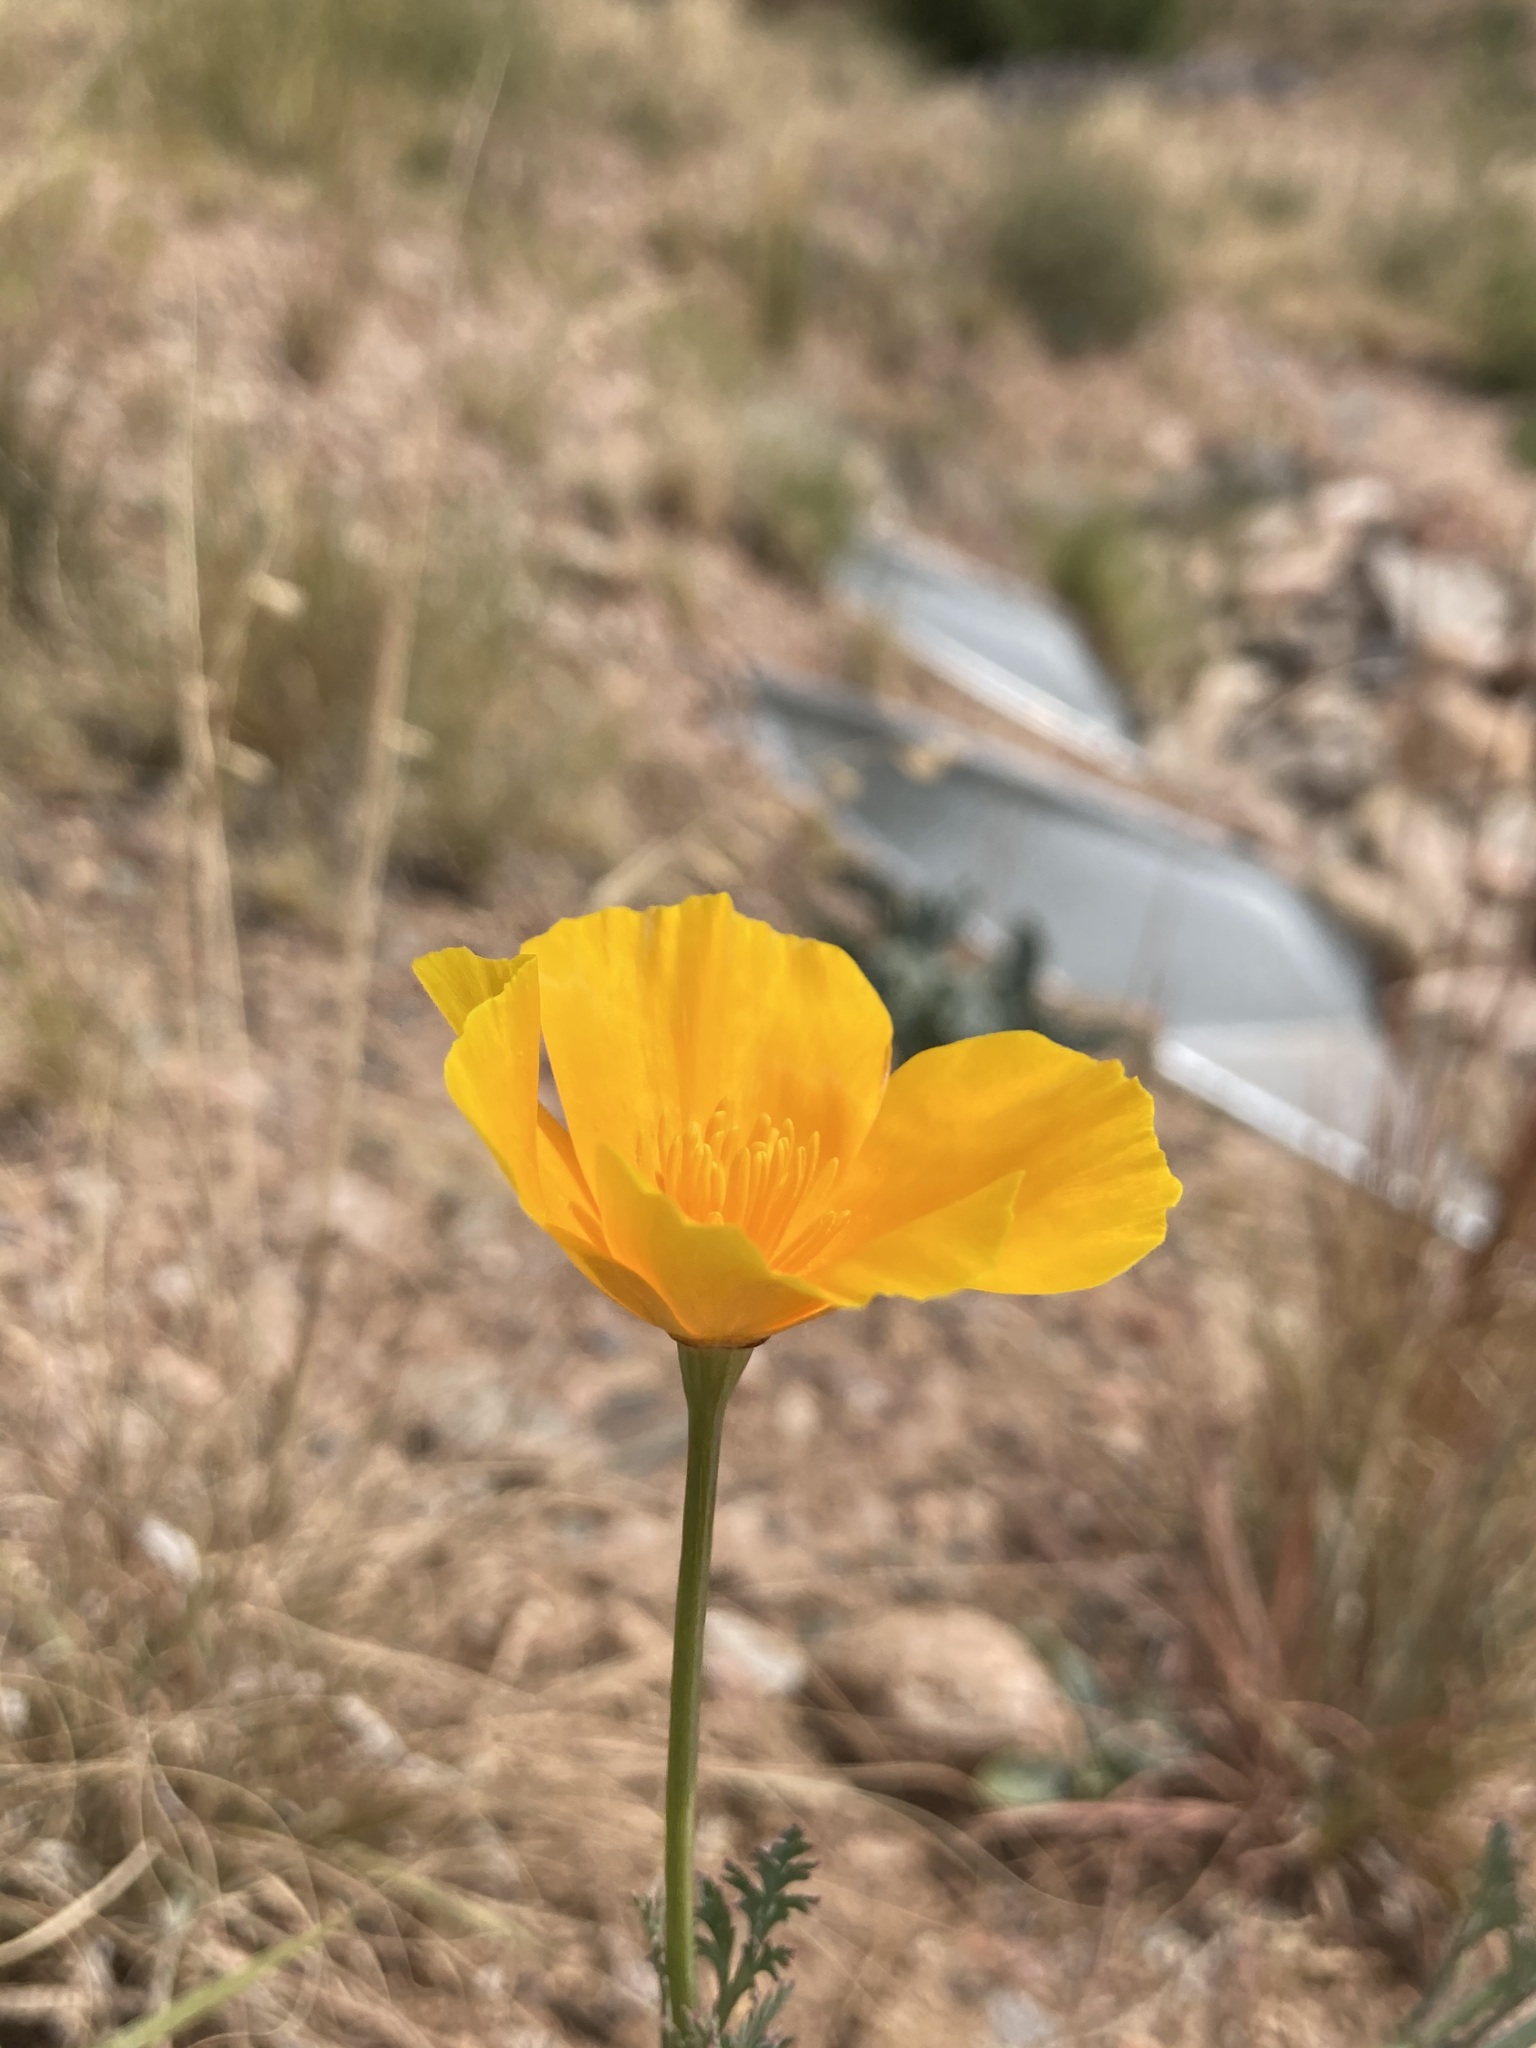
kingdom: Plantae
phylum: Tracheophyta
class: Magnoliopsida
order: Ranunculales
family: Papaveraceae
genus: Eschscholzia
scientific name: Eschscholzia californica
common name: California poppy
